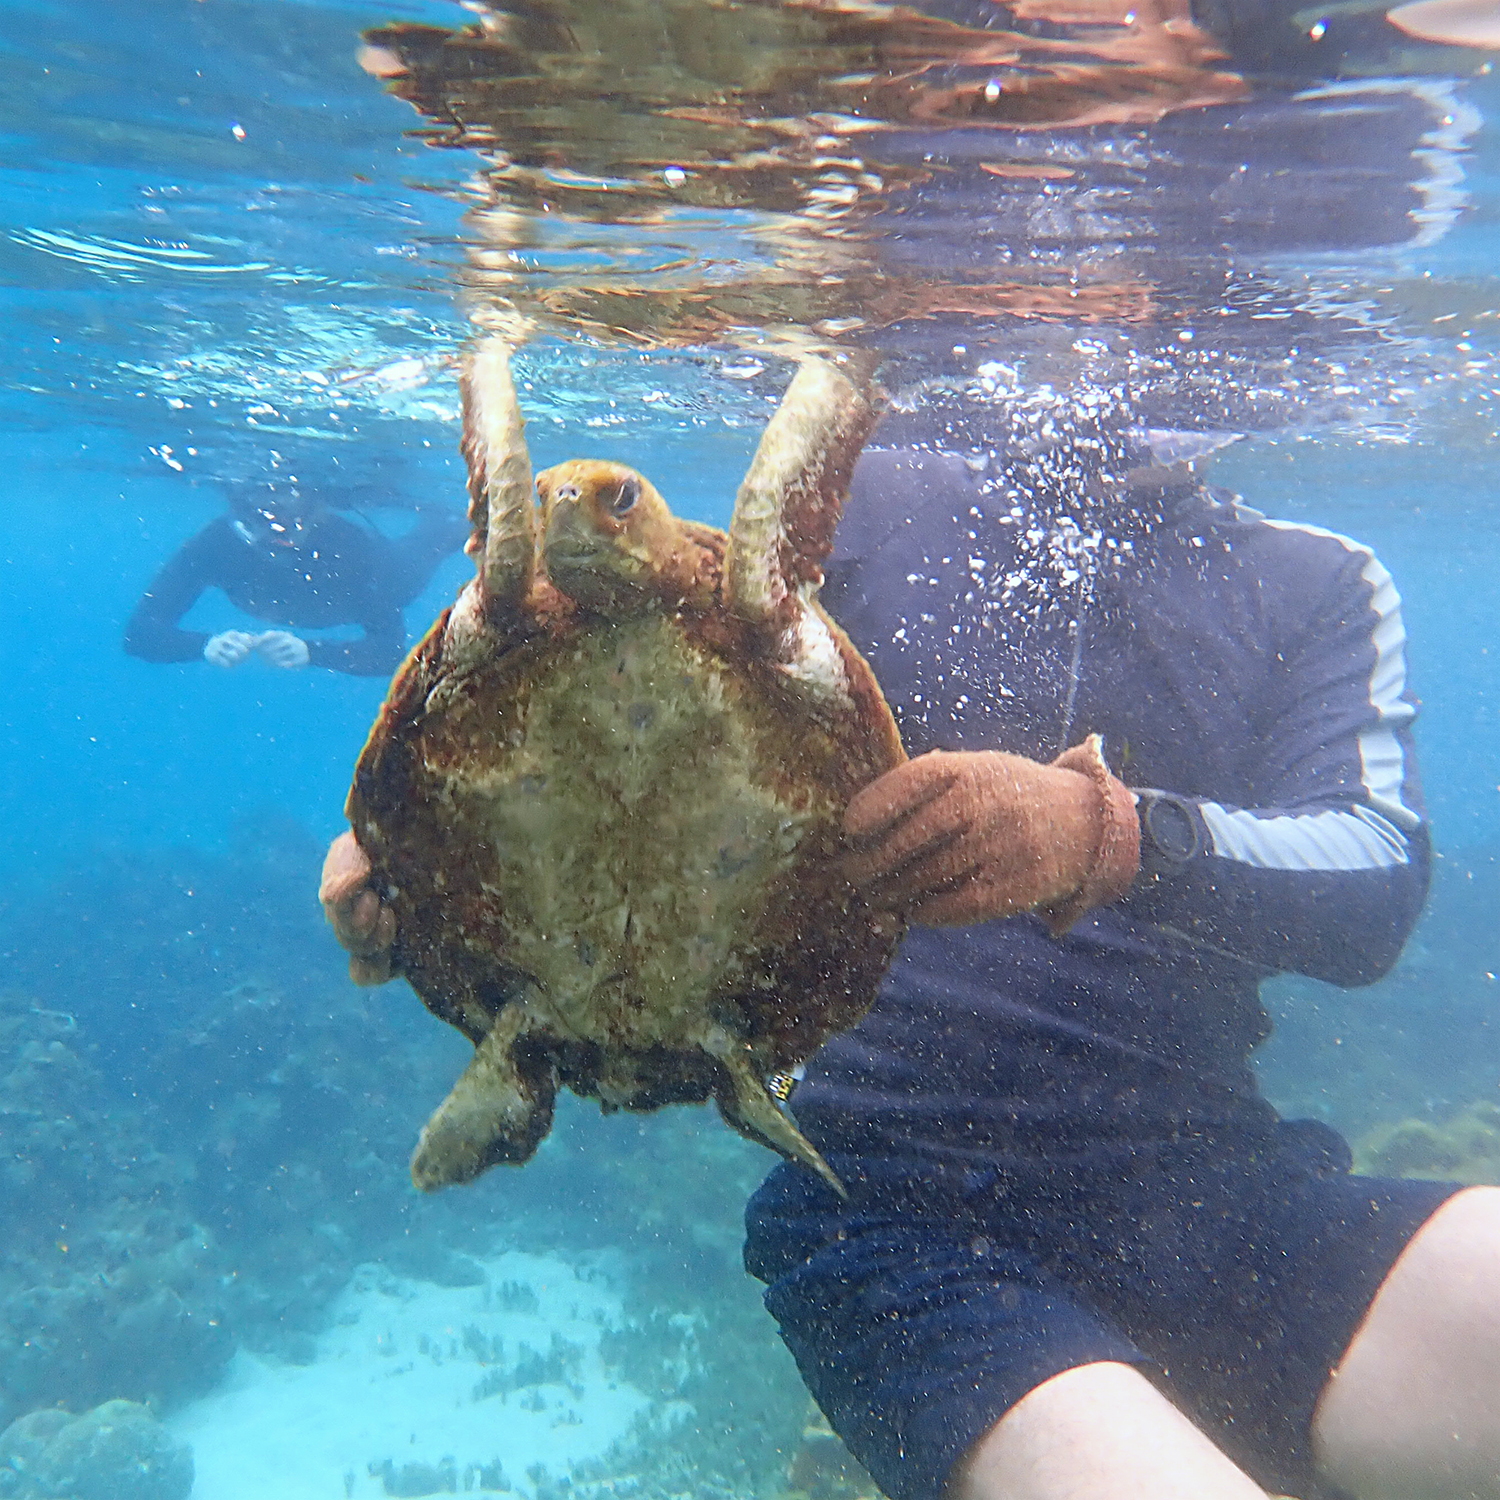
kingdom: Animalia
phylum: Chordata
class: Testudines
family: Cheloniidae
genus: Chelonia
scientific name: Chelonia mydas
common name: Green turtle
